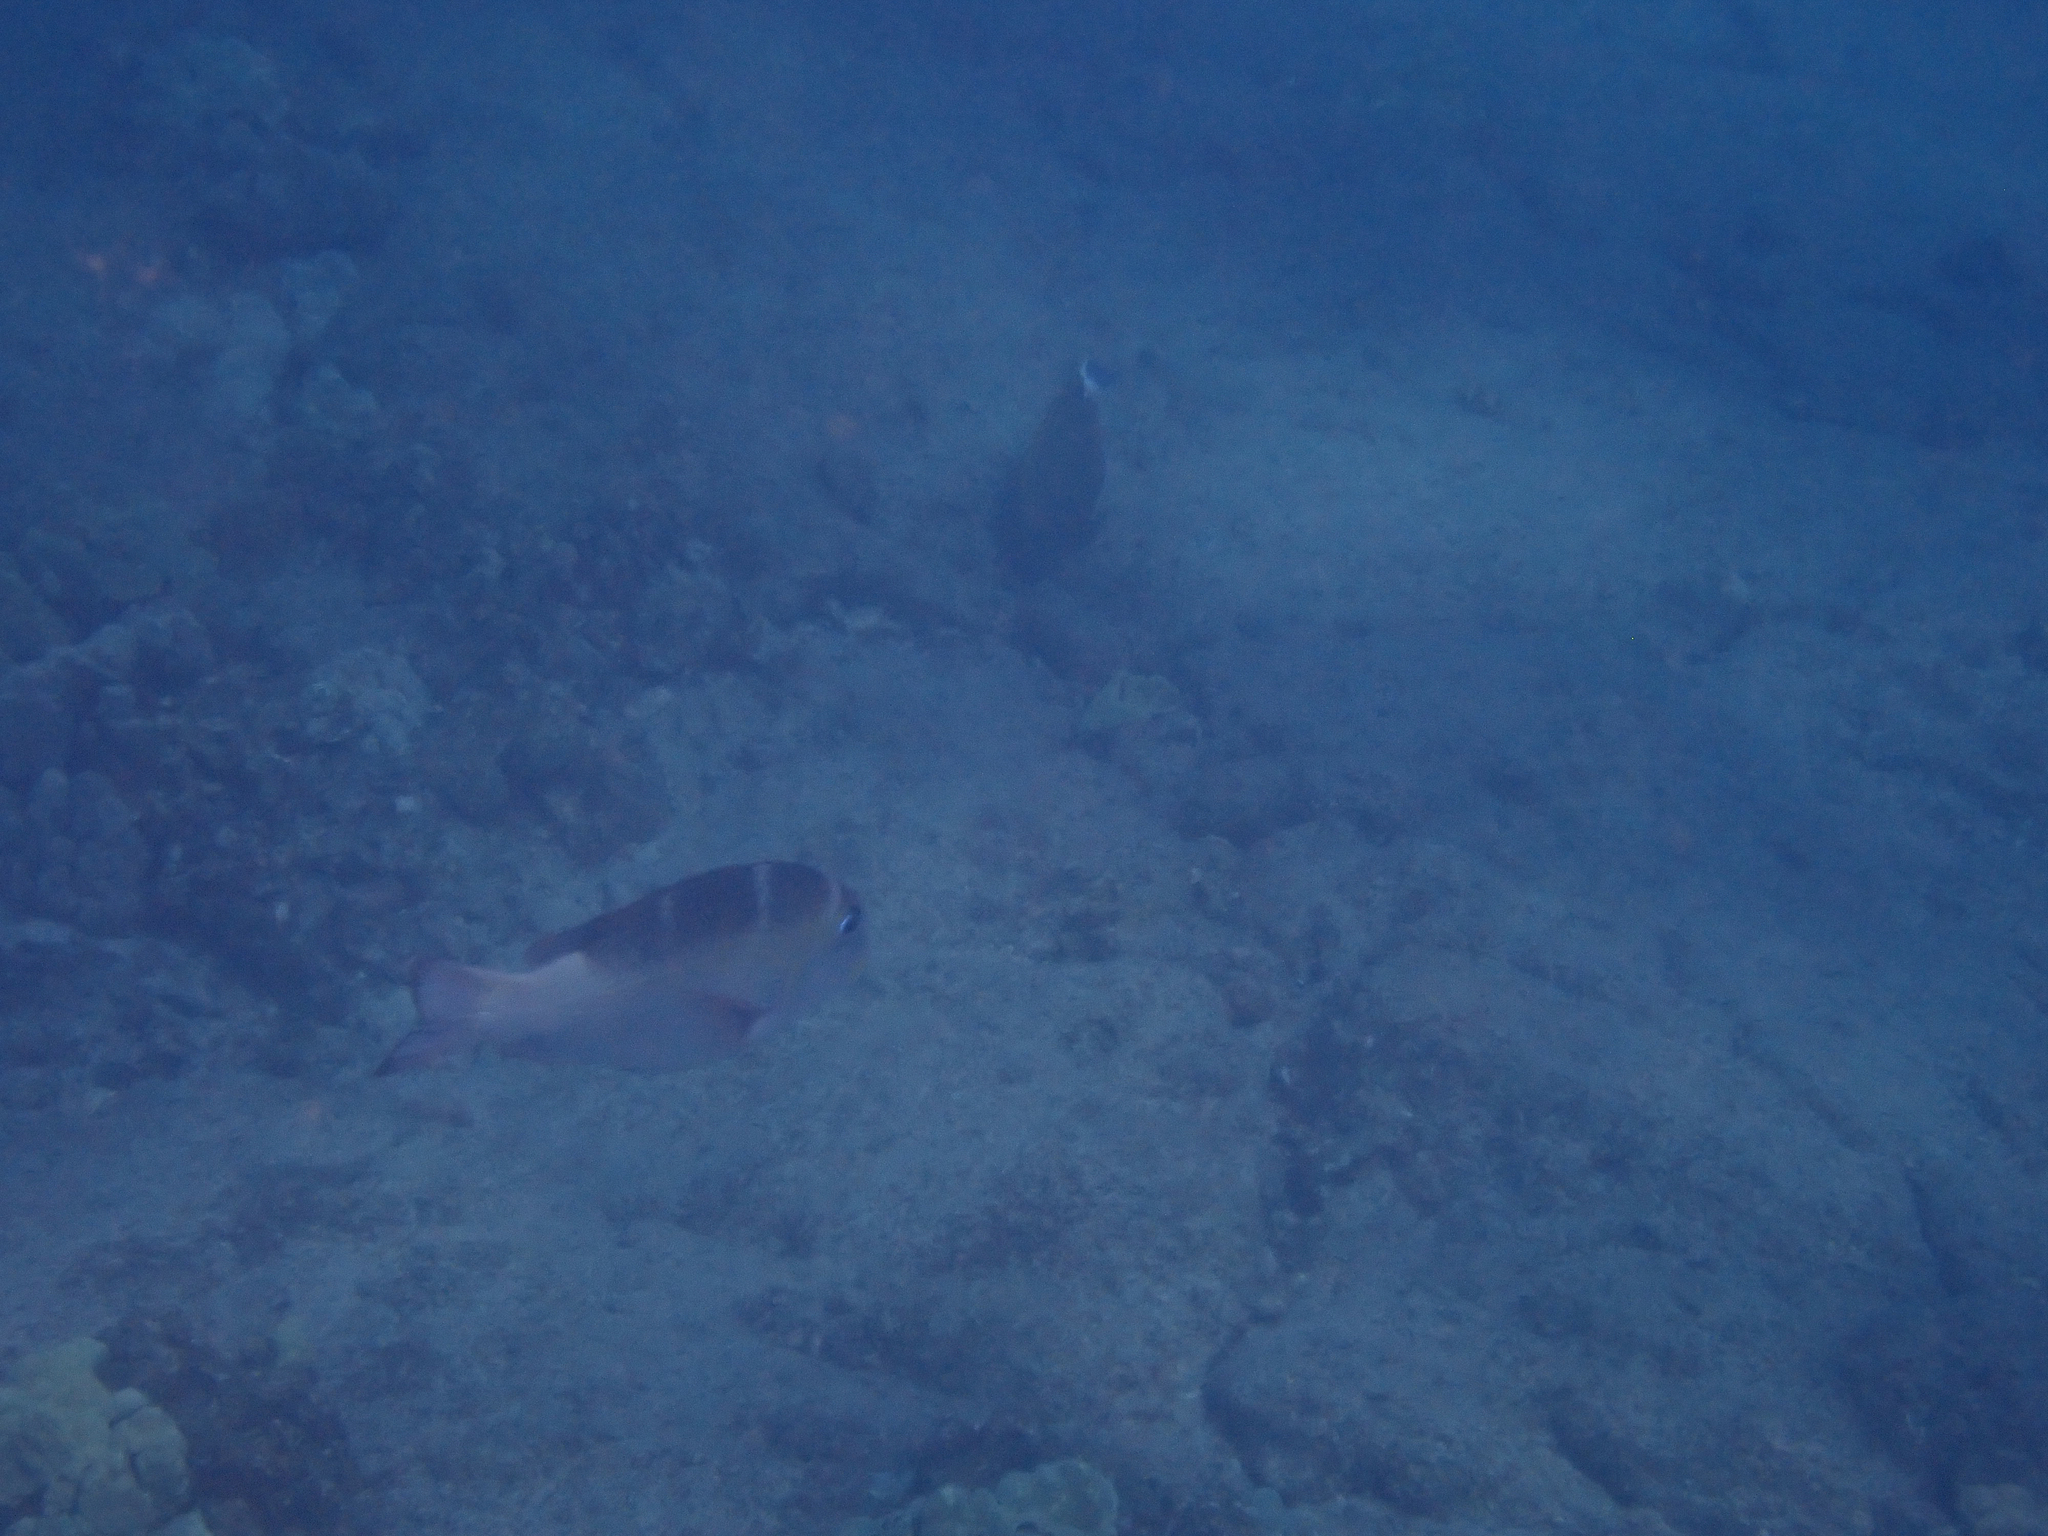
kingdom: Animalia
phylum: Chordata
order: Perciformes
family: Lethrinidae
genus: Monotaxis
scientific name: Monotaxis grandoculis
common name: Bigeye emperor
